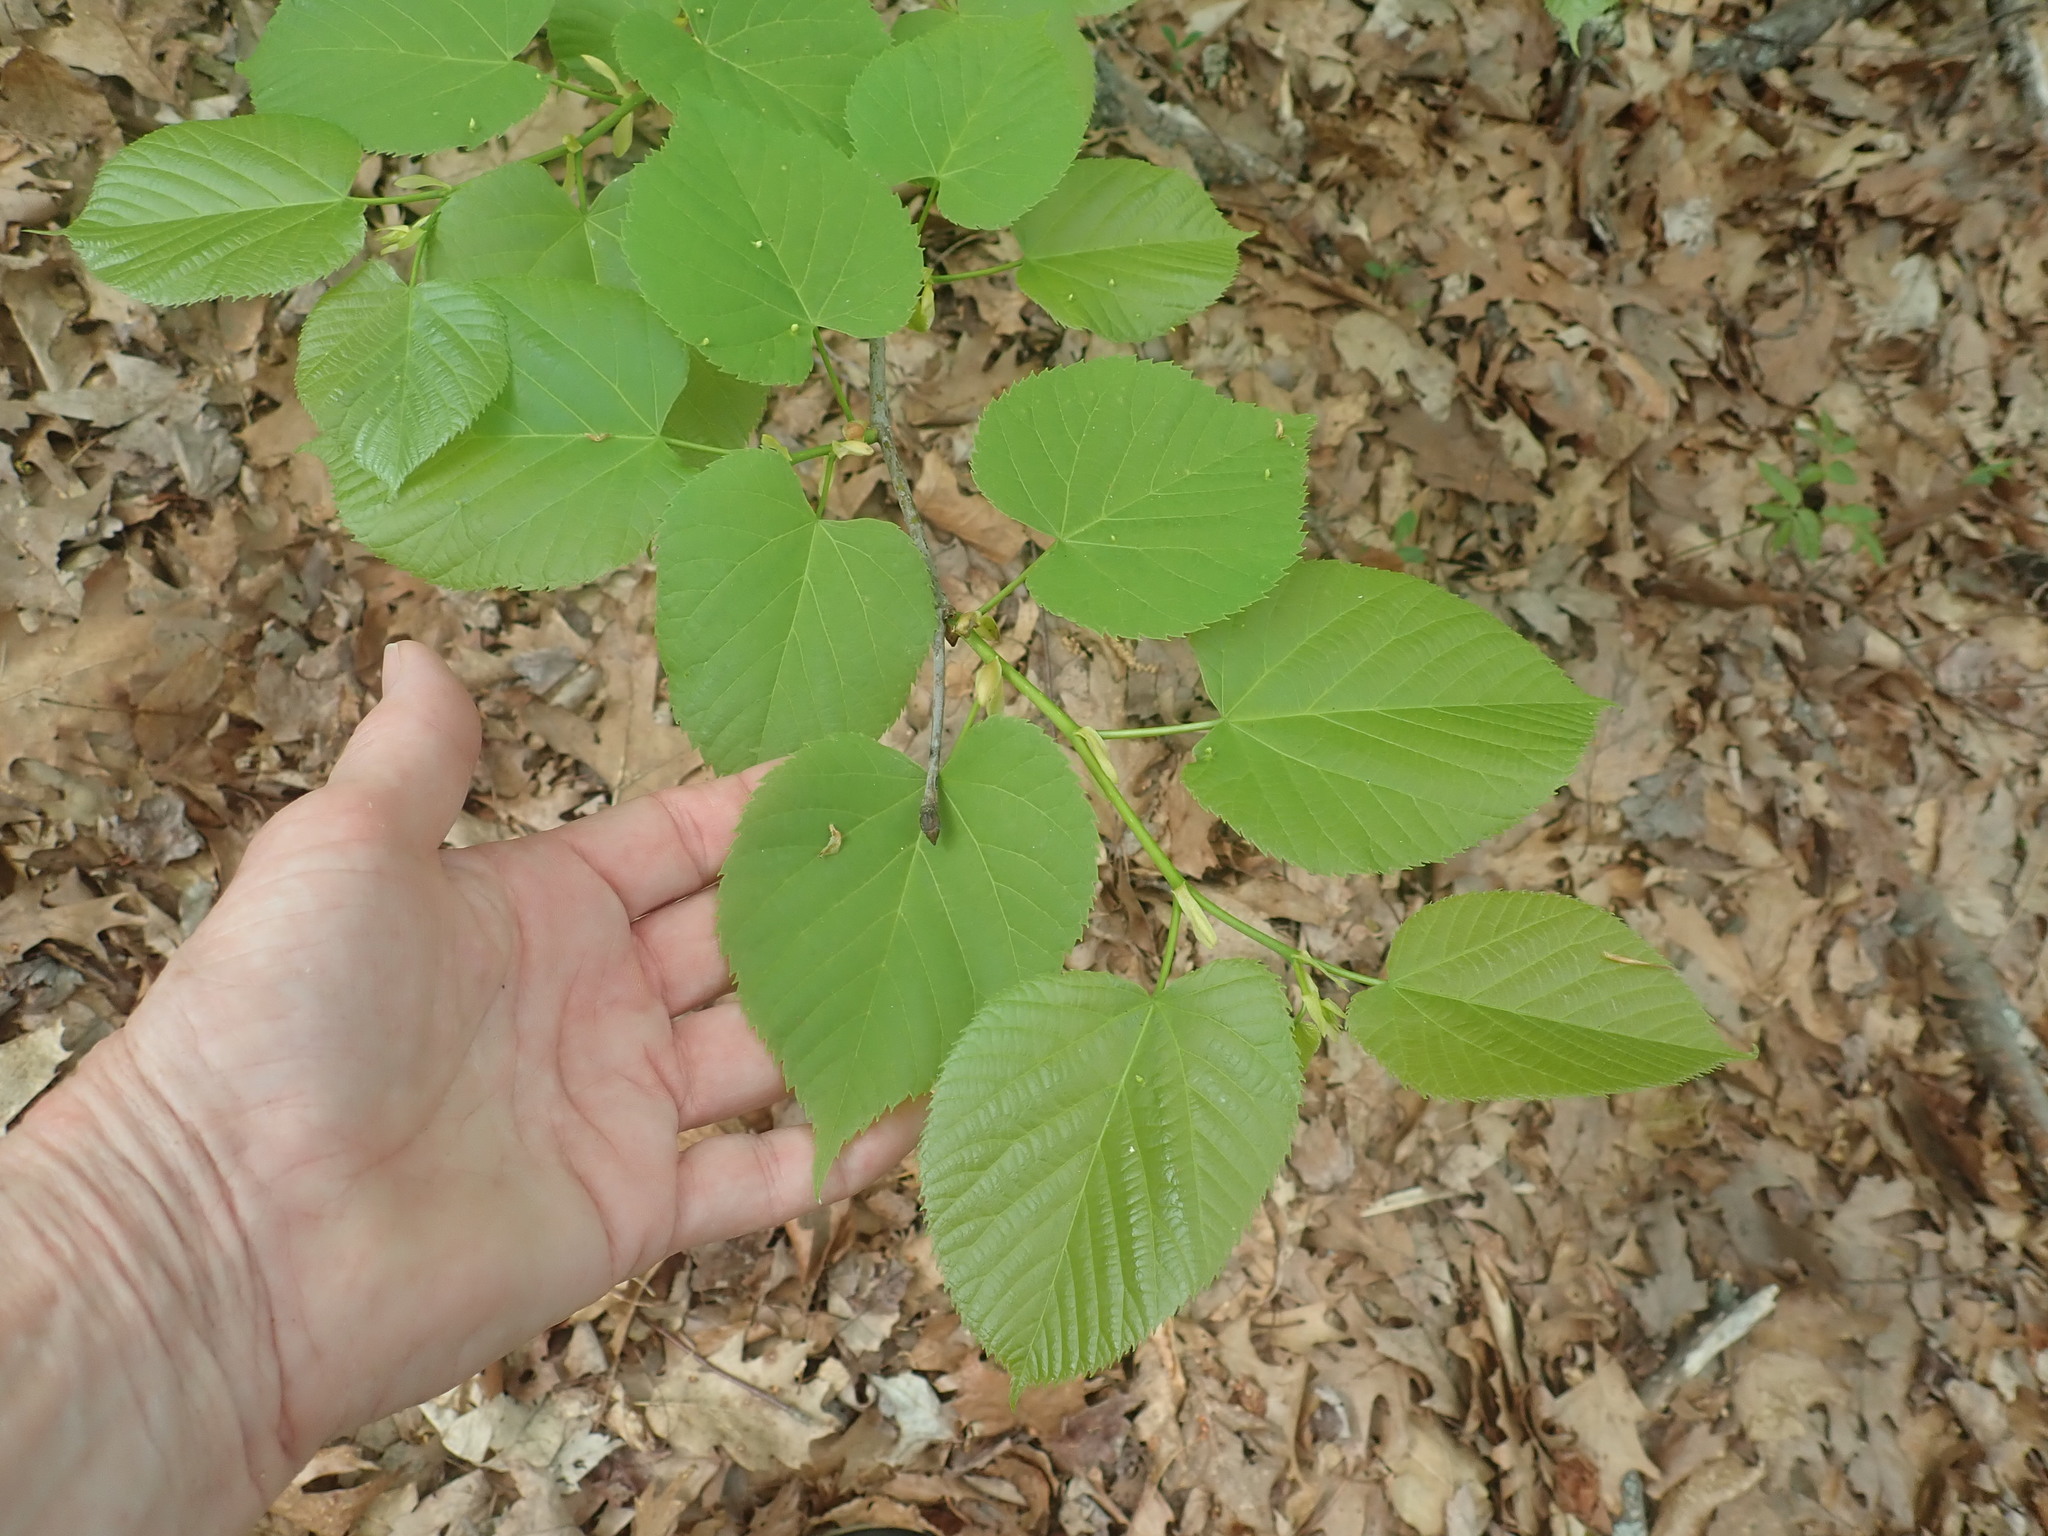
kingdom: Plantae
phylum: Tracheophyta
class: Magnoliopsida
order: Malvales
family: Malvaceae
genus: Tilia
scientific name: Tilia americana
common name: Basswood
